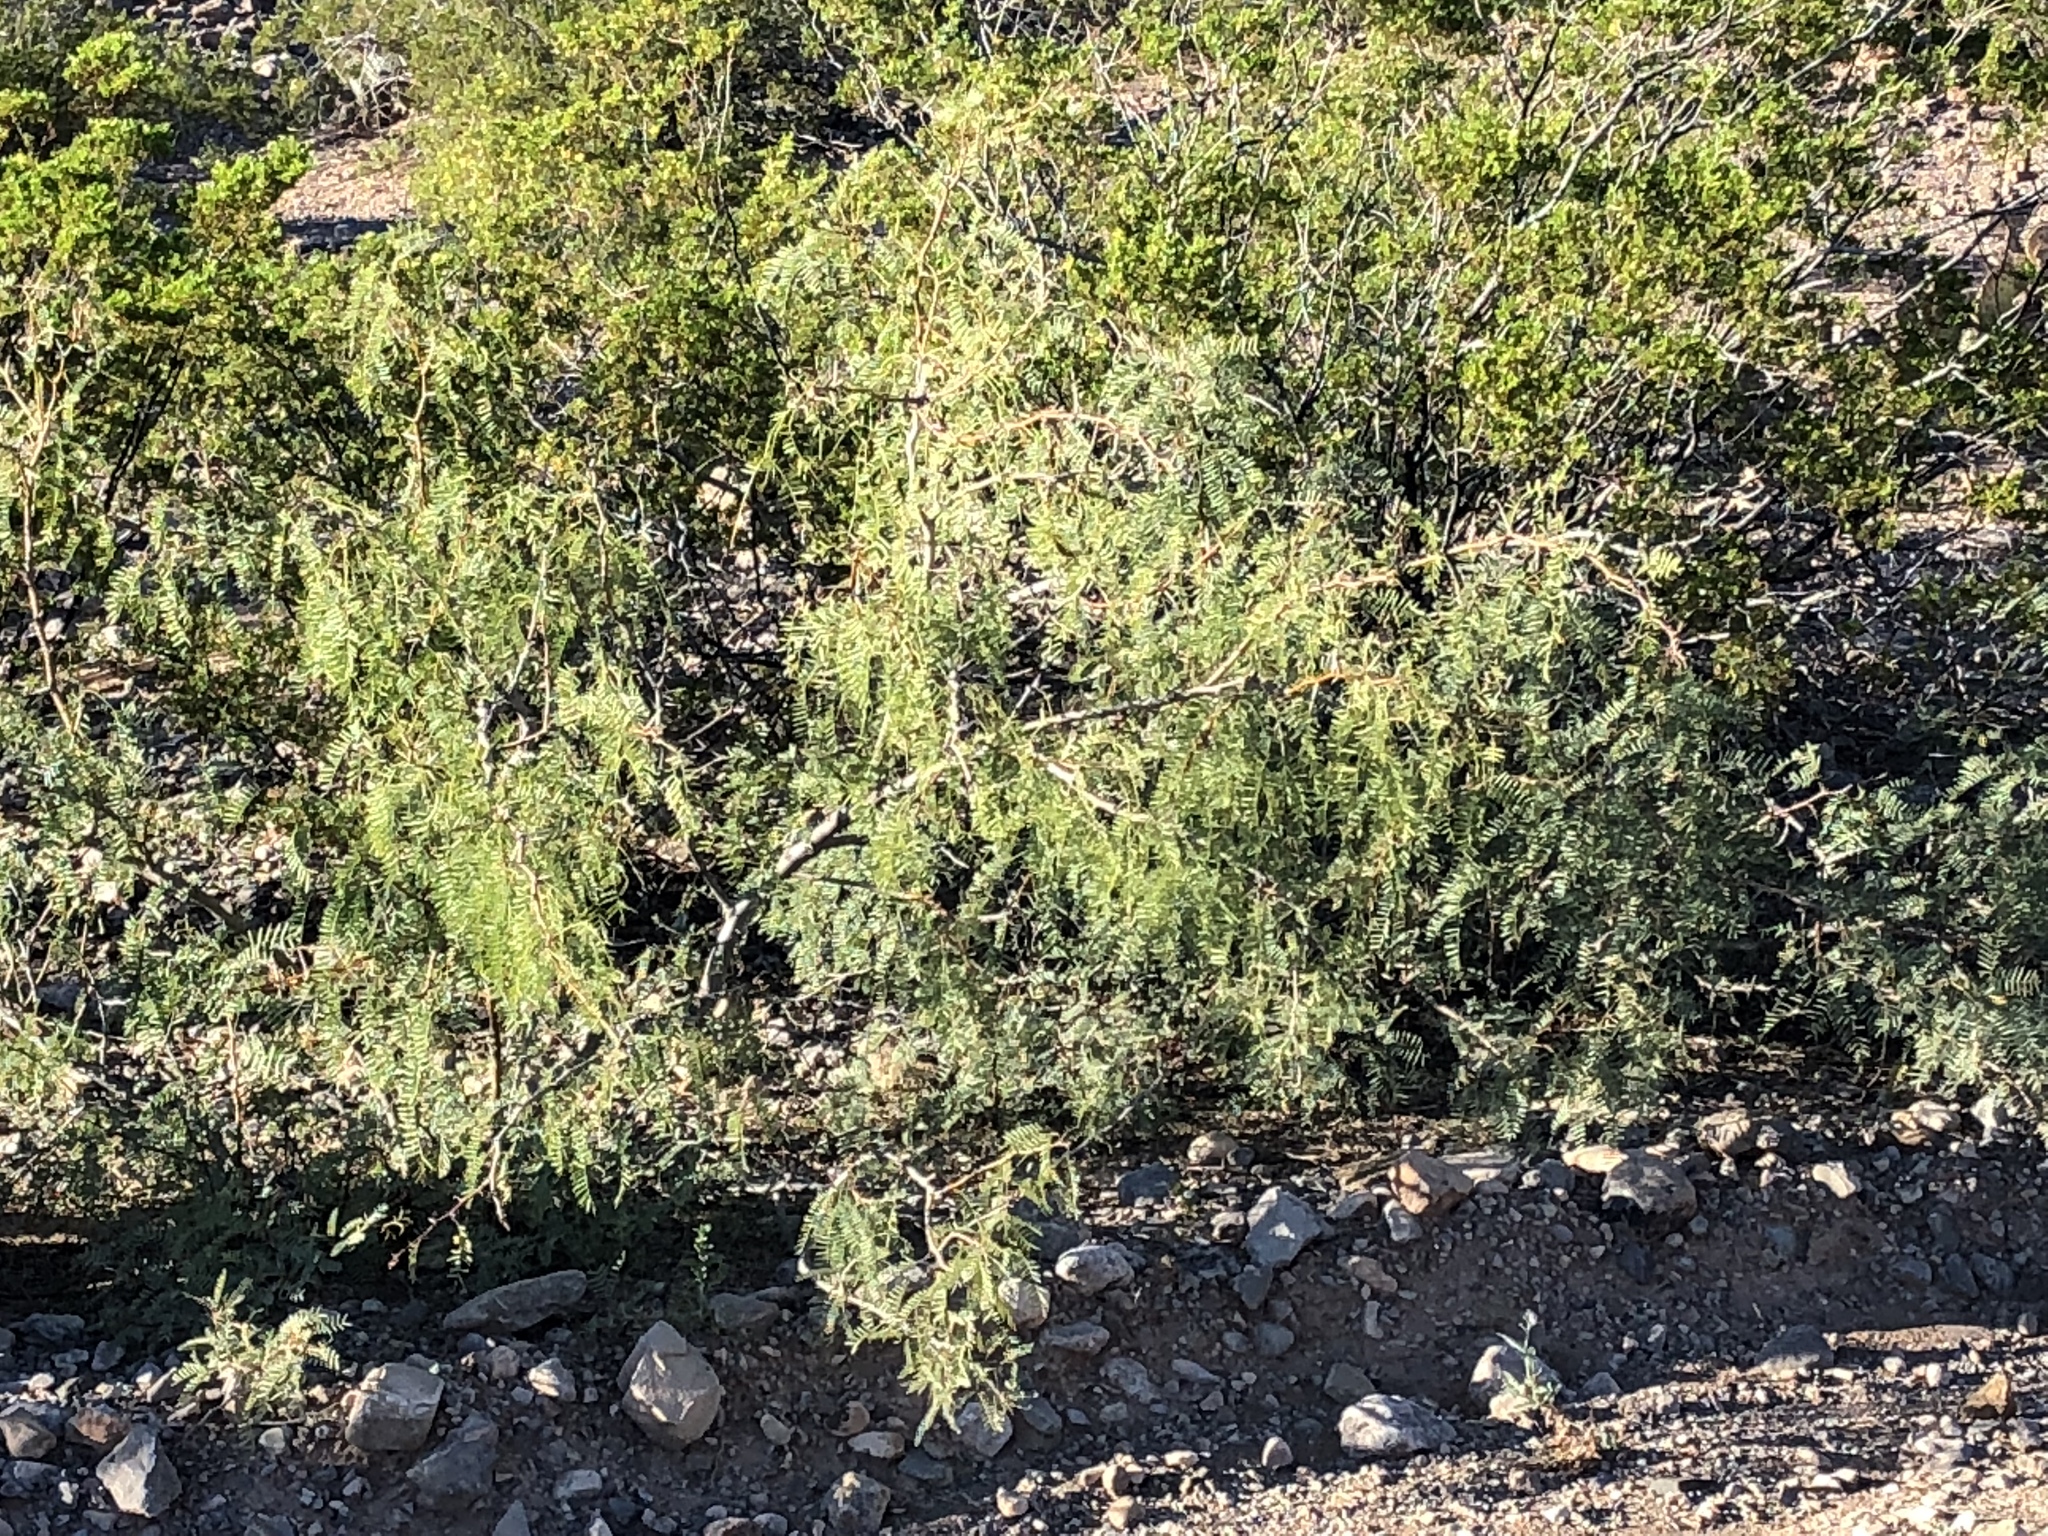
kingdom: Plantae
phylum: Tracheophyta
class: Magnoliopsida
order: Fabales
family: Fabaceae
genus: Prosopis
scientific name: Prosopis glandulosa
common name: Honey mesquite
